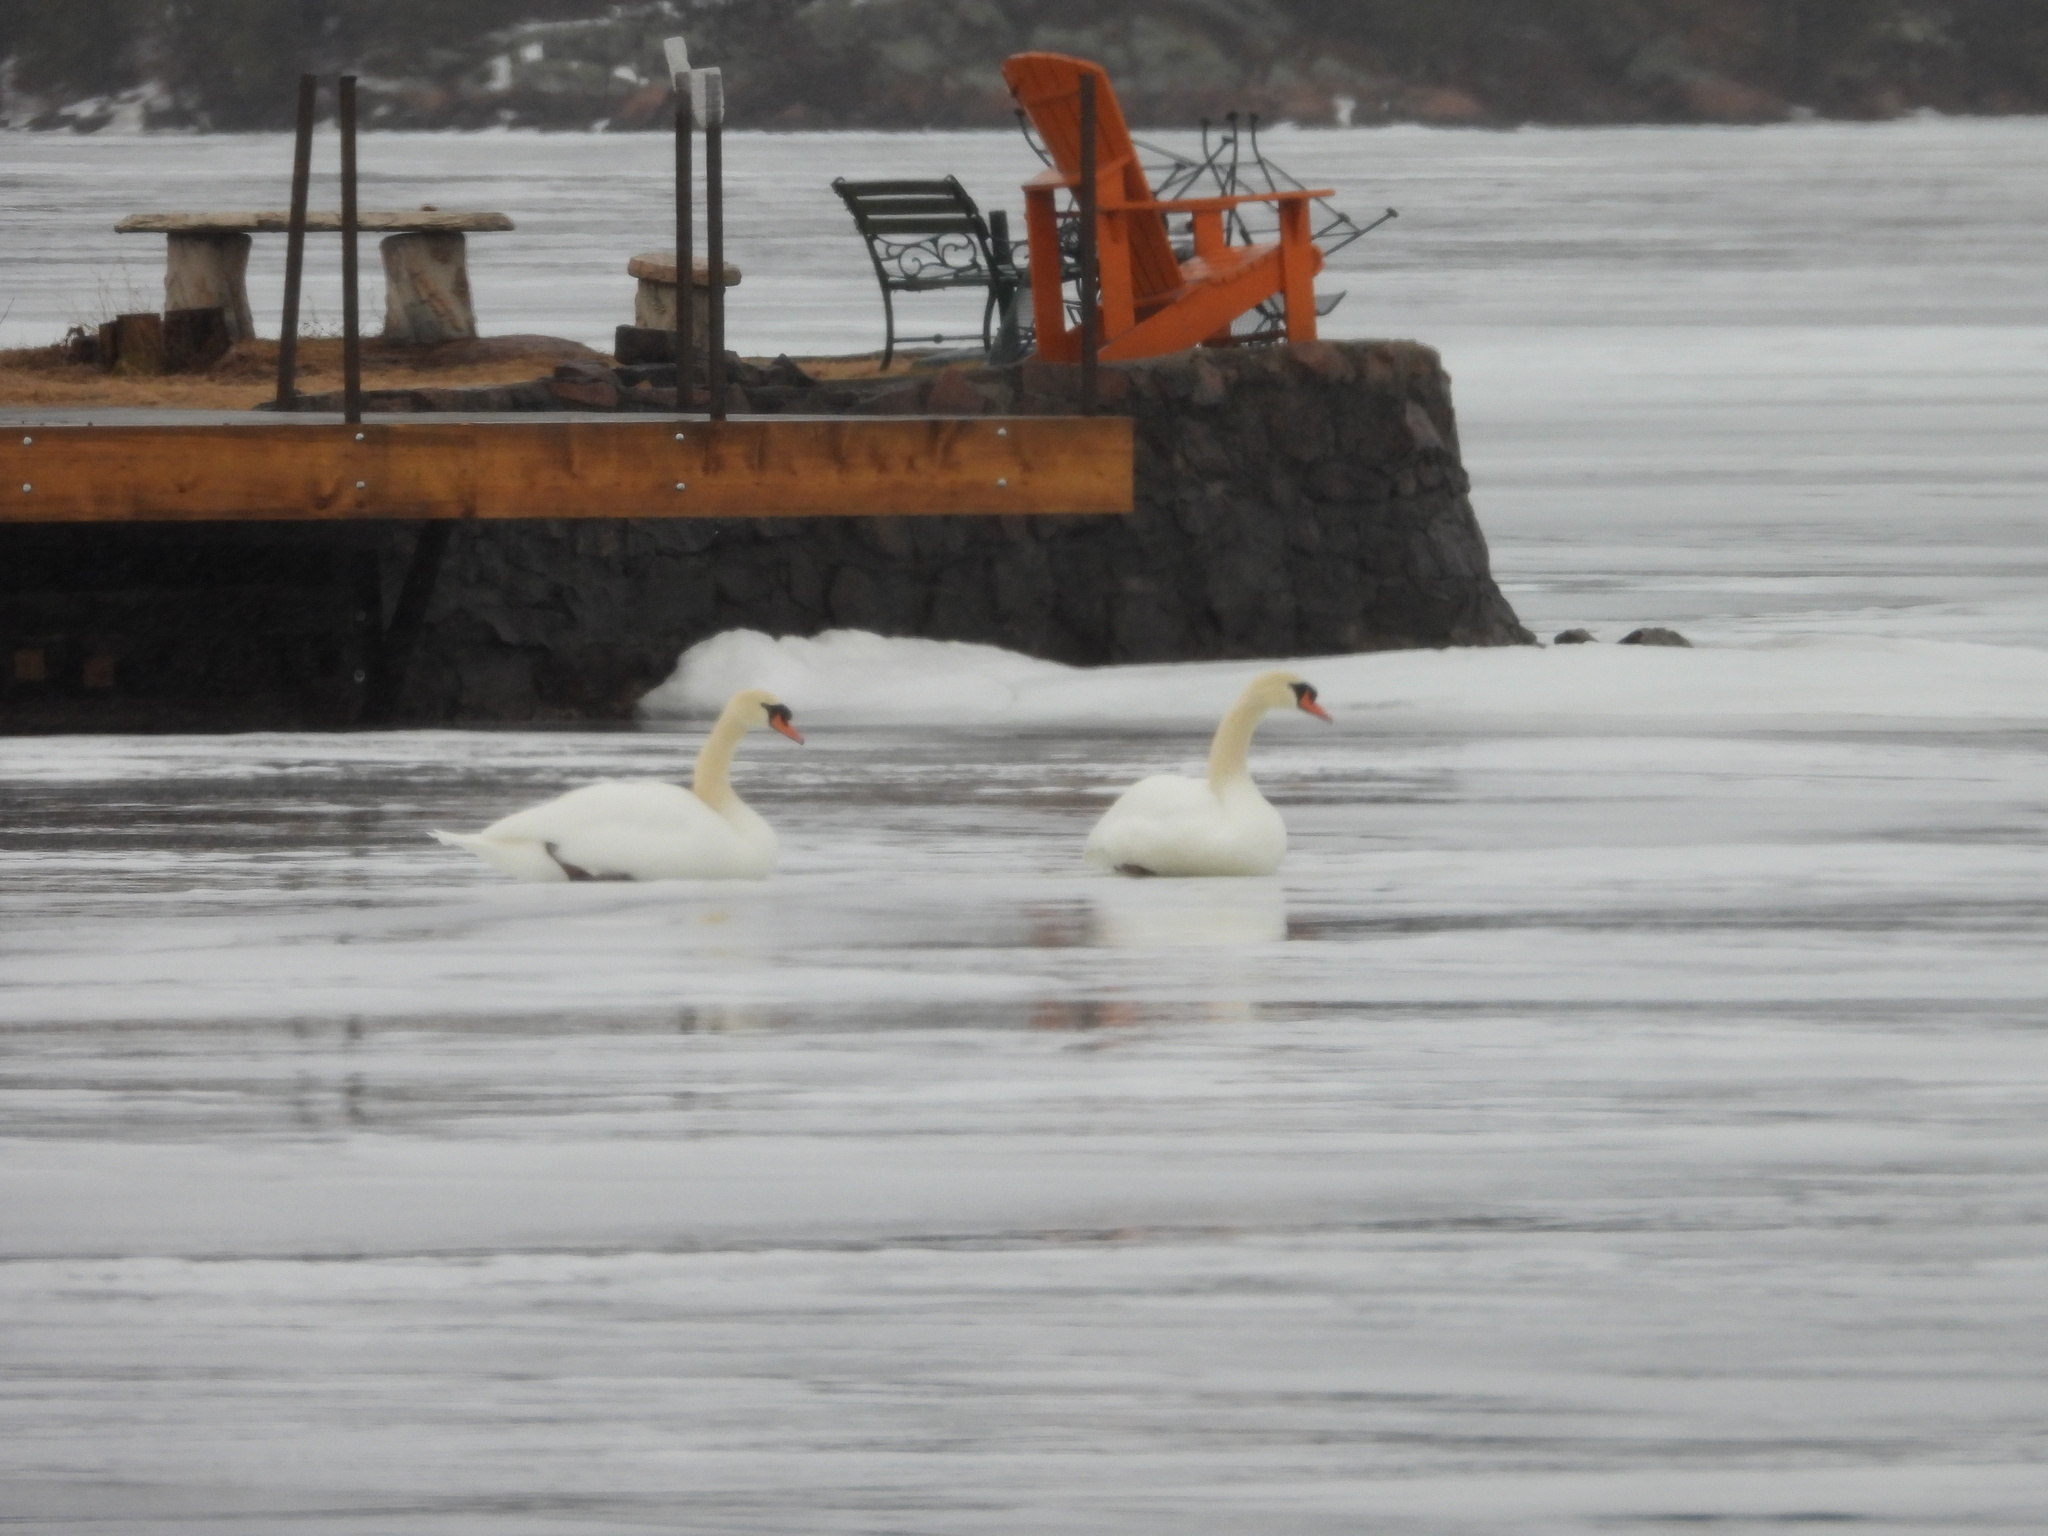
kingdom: Animalia
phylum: Chordata
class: Aves
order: Anseriformes
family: Anatidae
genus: Cygnus
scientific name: Cygnus olor
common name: Mute swan
